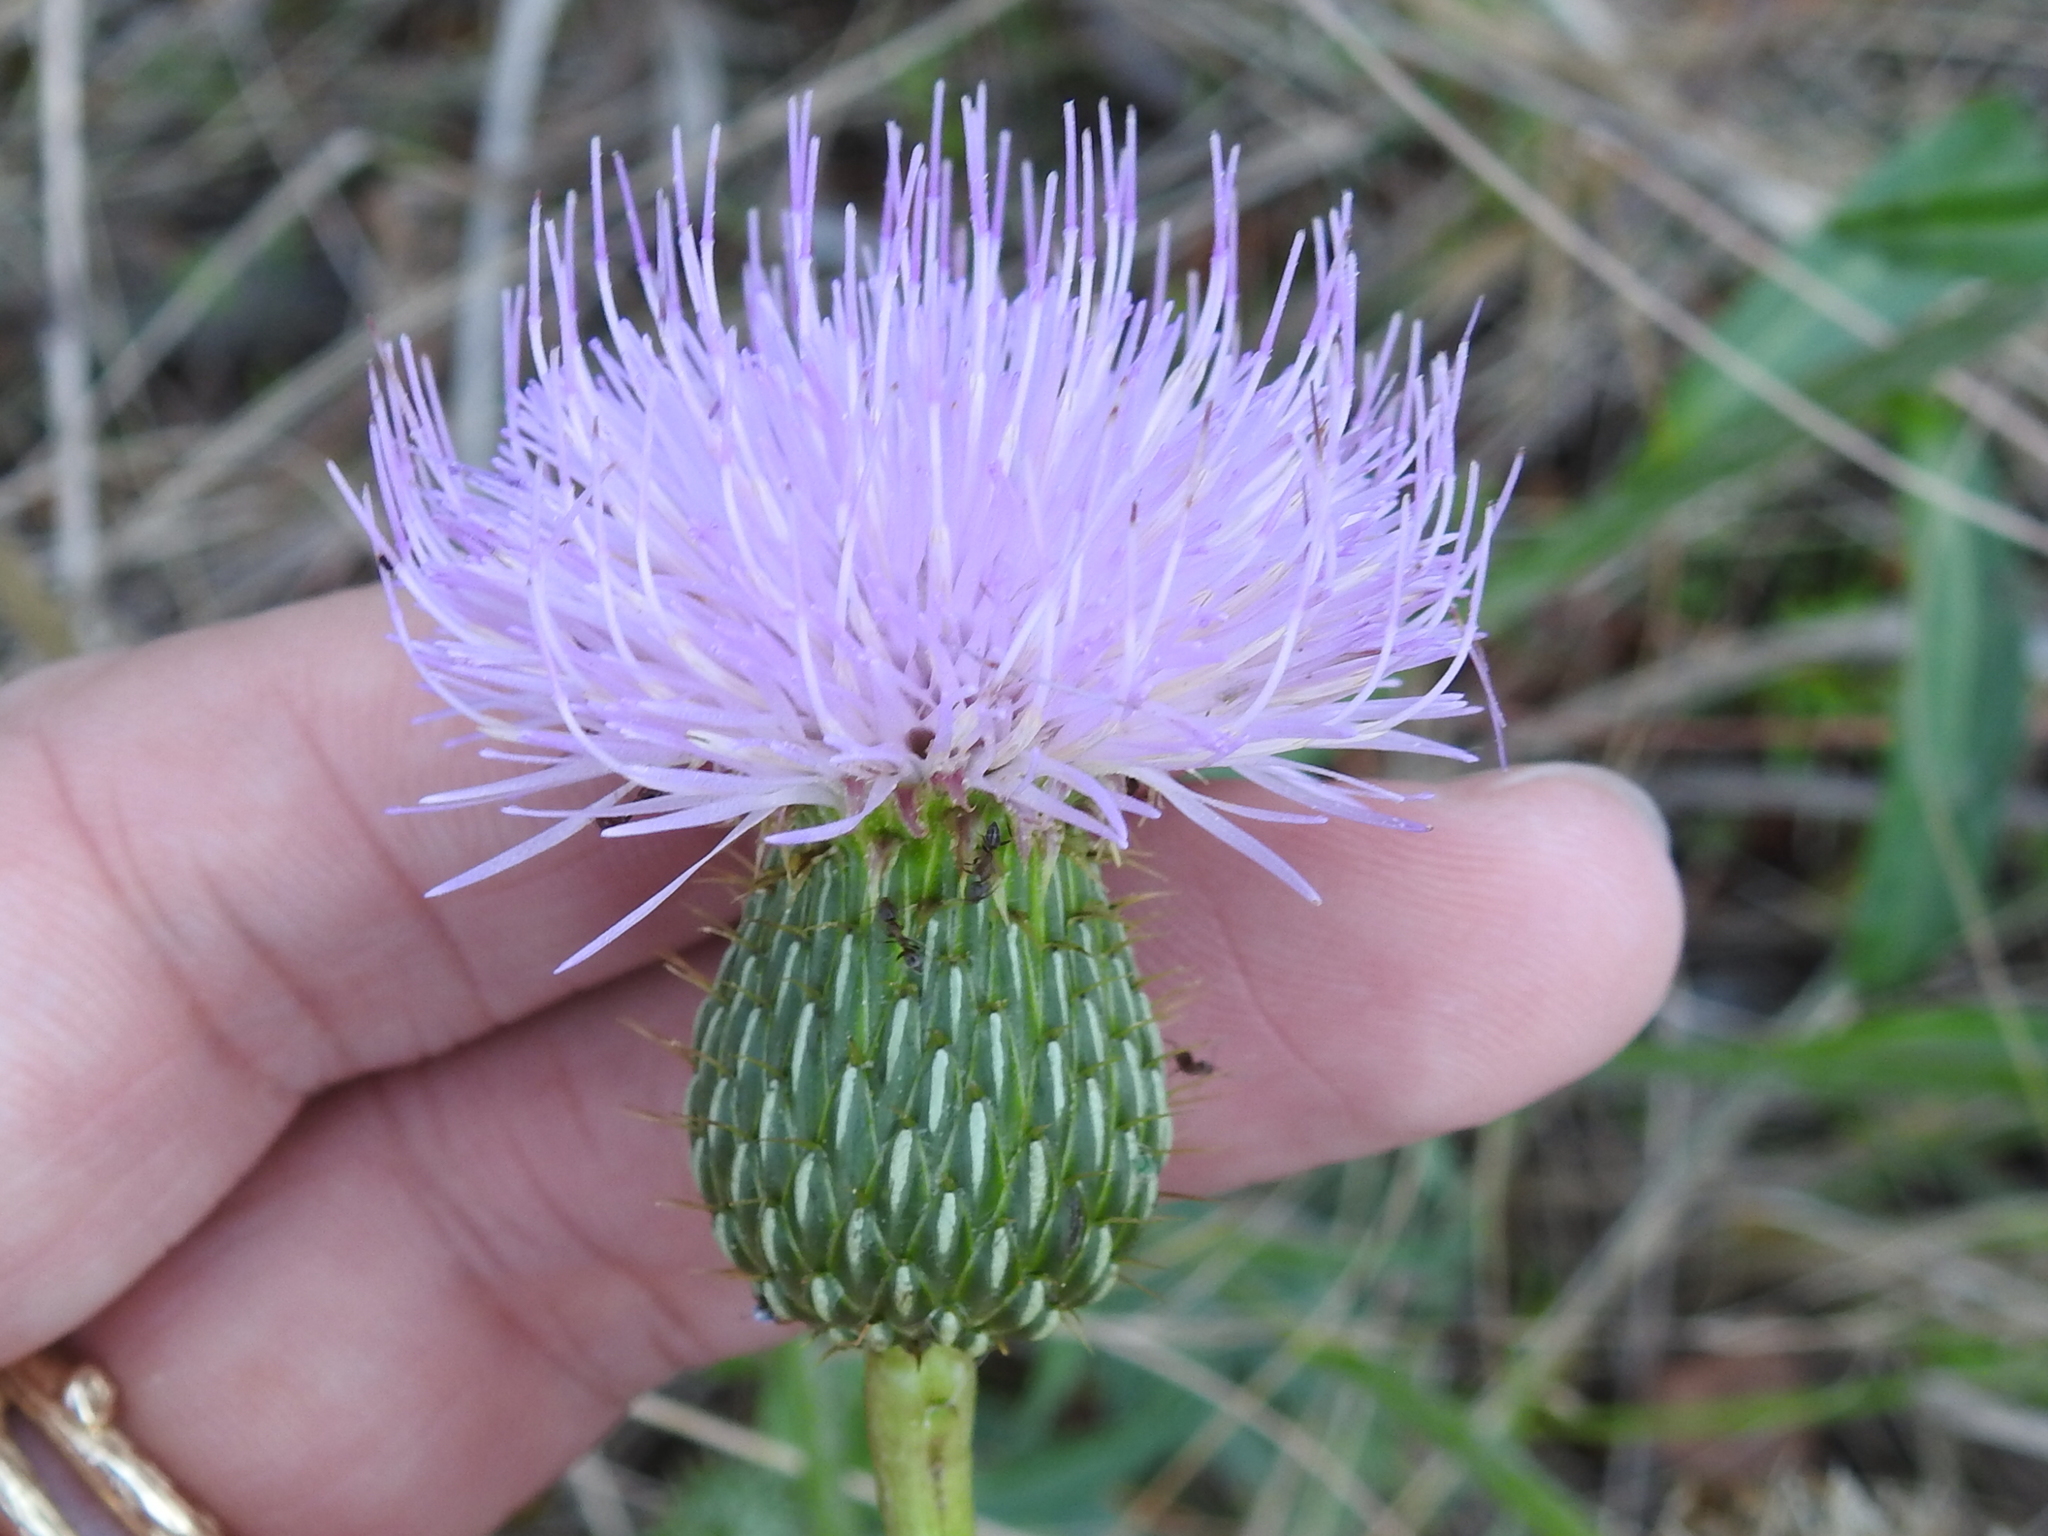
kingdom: Plantae
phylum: Tracheophyta
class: Magnoliopsida
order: Asterales
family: Asteraceae
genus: Cirsium
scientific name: Cirsium texanum
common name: Texas purple thistle
